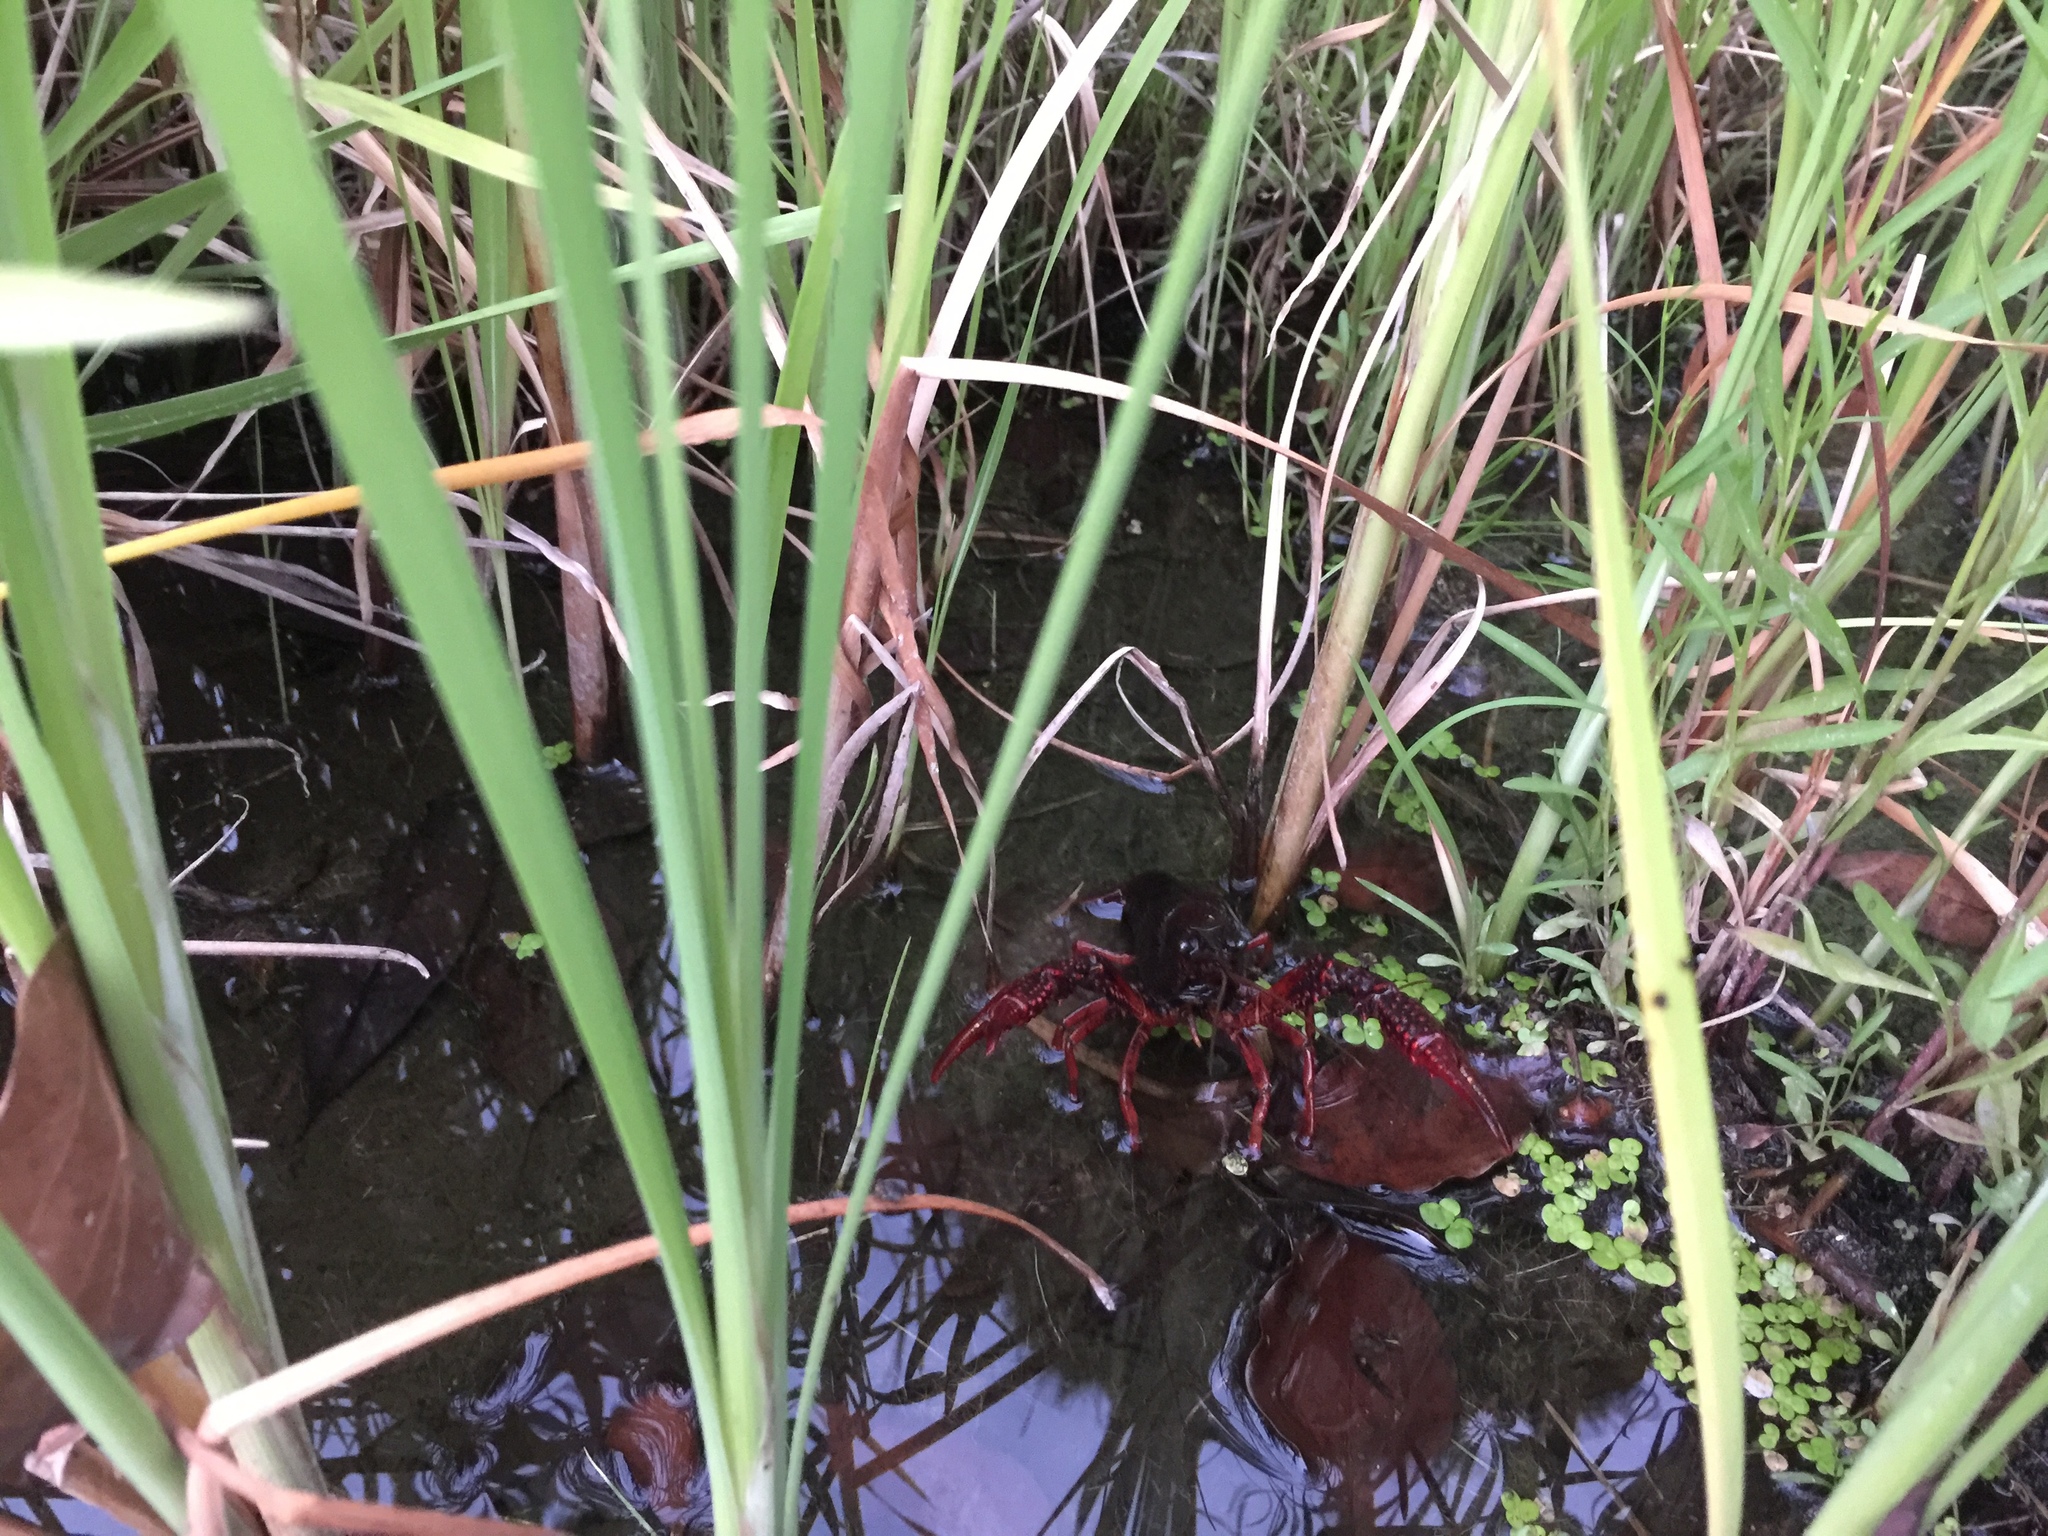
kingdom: Animalia
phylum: Arthropoda
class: Malacostraca
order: Decapoda
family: Cambaridae
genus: Procambarus
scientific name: Procambarus clarkii
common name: Red swamp crayfish
